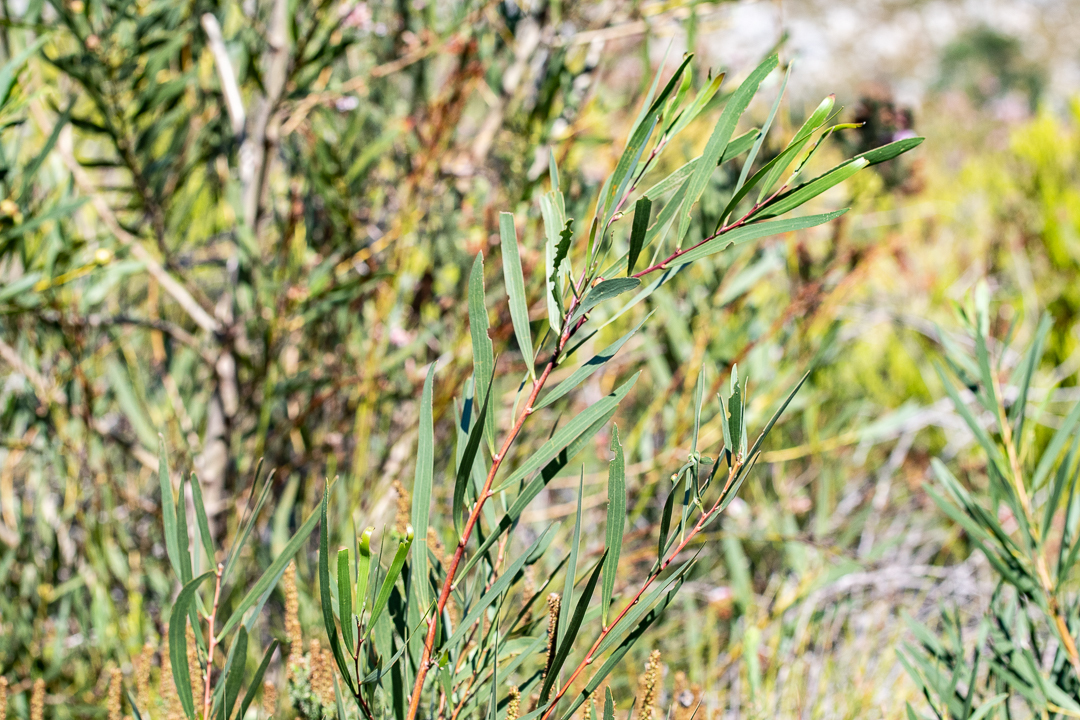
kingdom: Plantae
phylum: Tracheophyta
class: Magnoliopsida
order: Fabales
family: Fabaceae
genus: Acacia
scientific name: Acacia longifolia
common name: Sydney golden wattle
